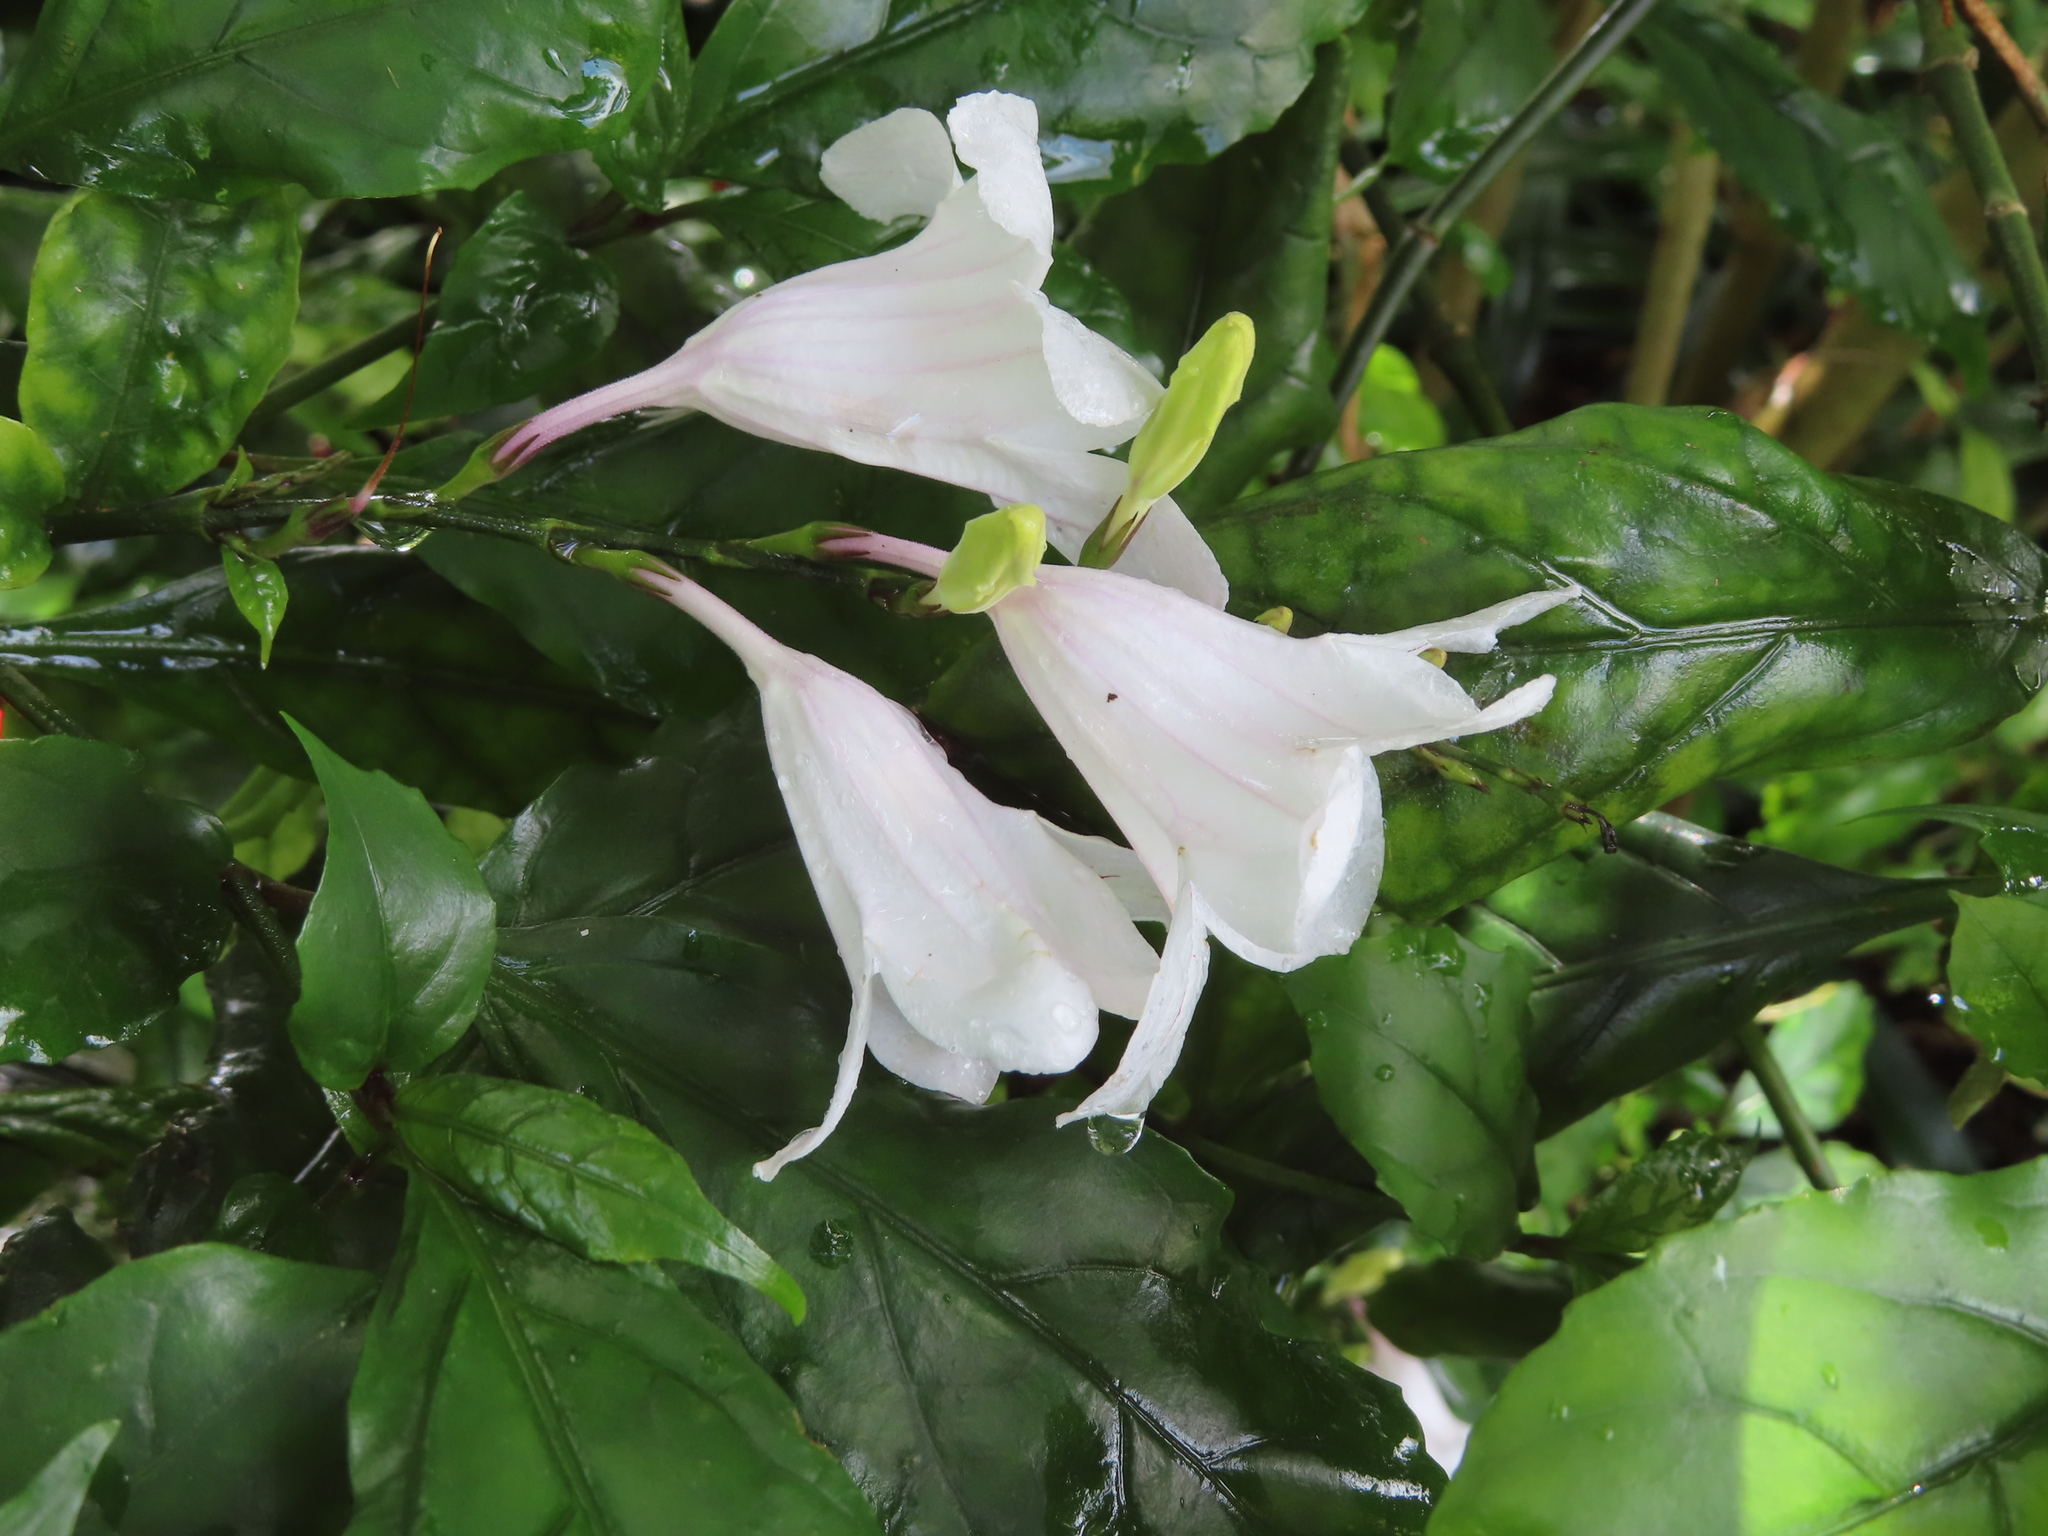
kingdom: Plantae
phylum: Tracheophyta
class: Magnoliopsida
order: Lamiales
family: Acanthaceae
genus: Mackaya
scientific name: Mackaya bella
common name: Forest bell-bush
